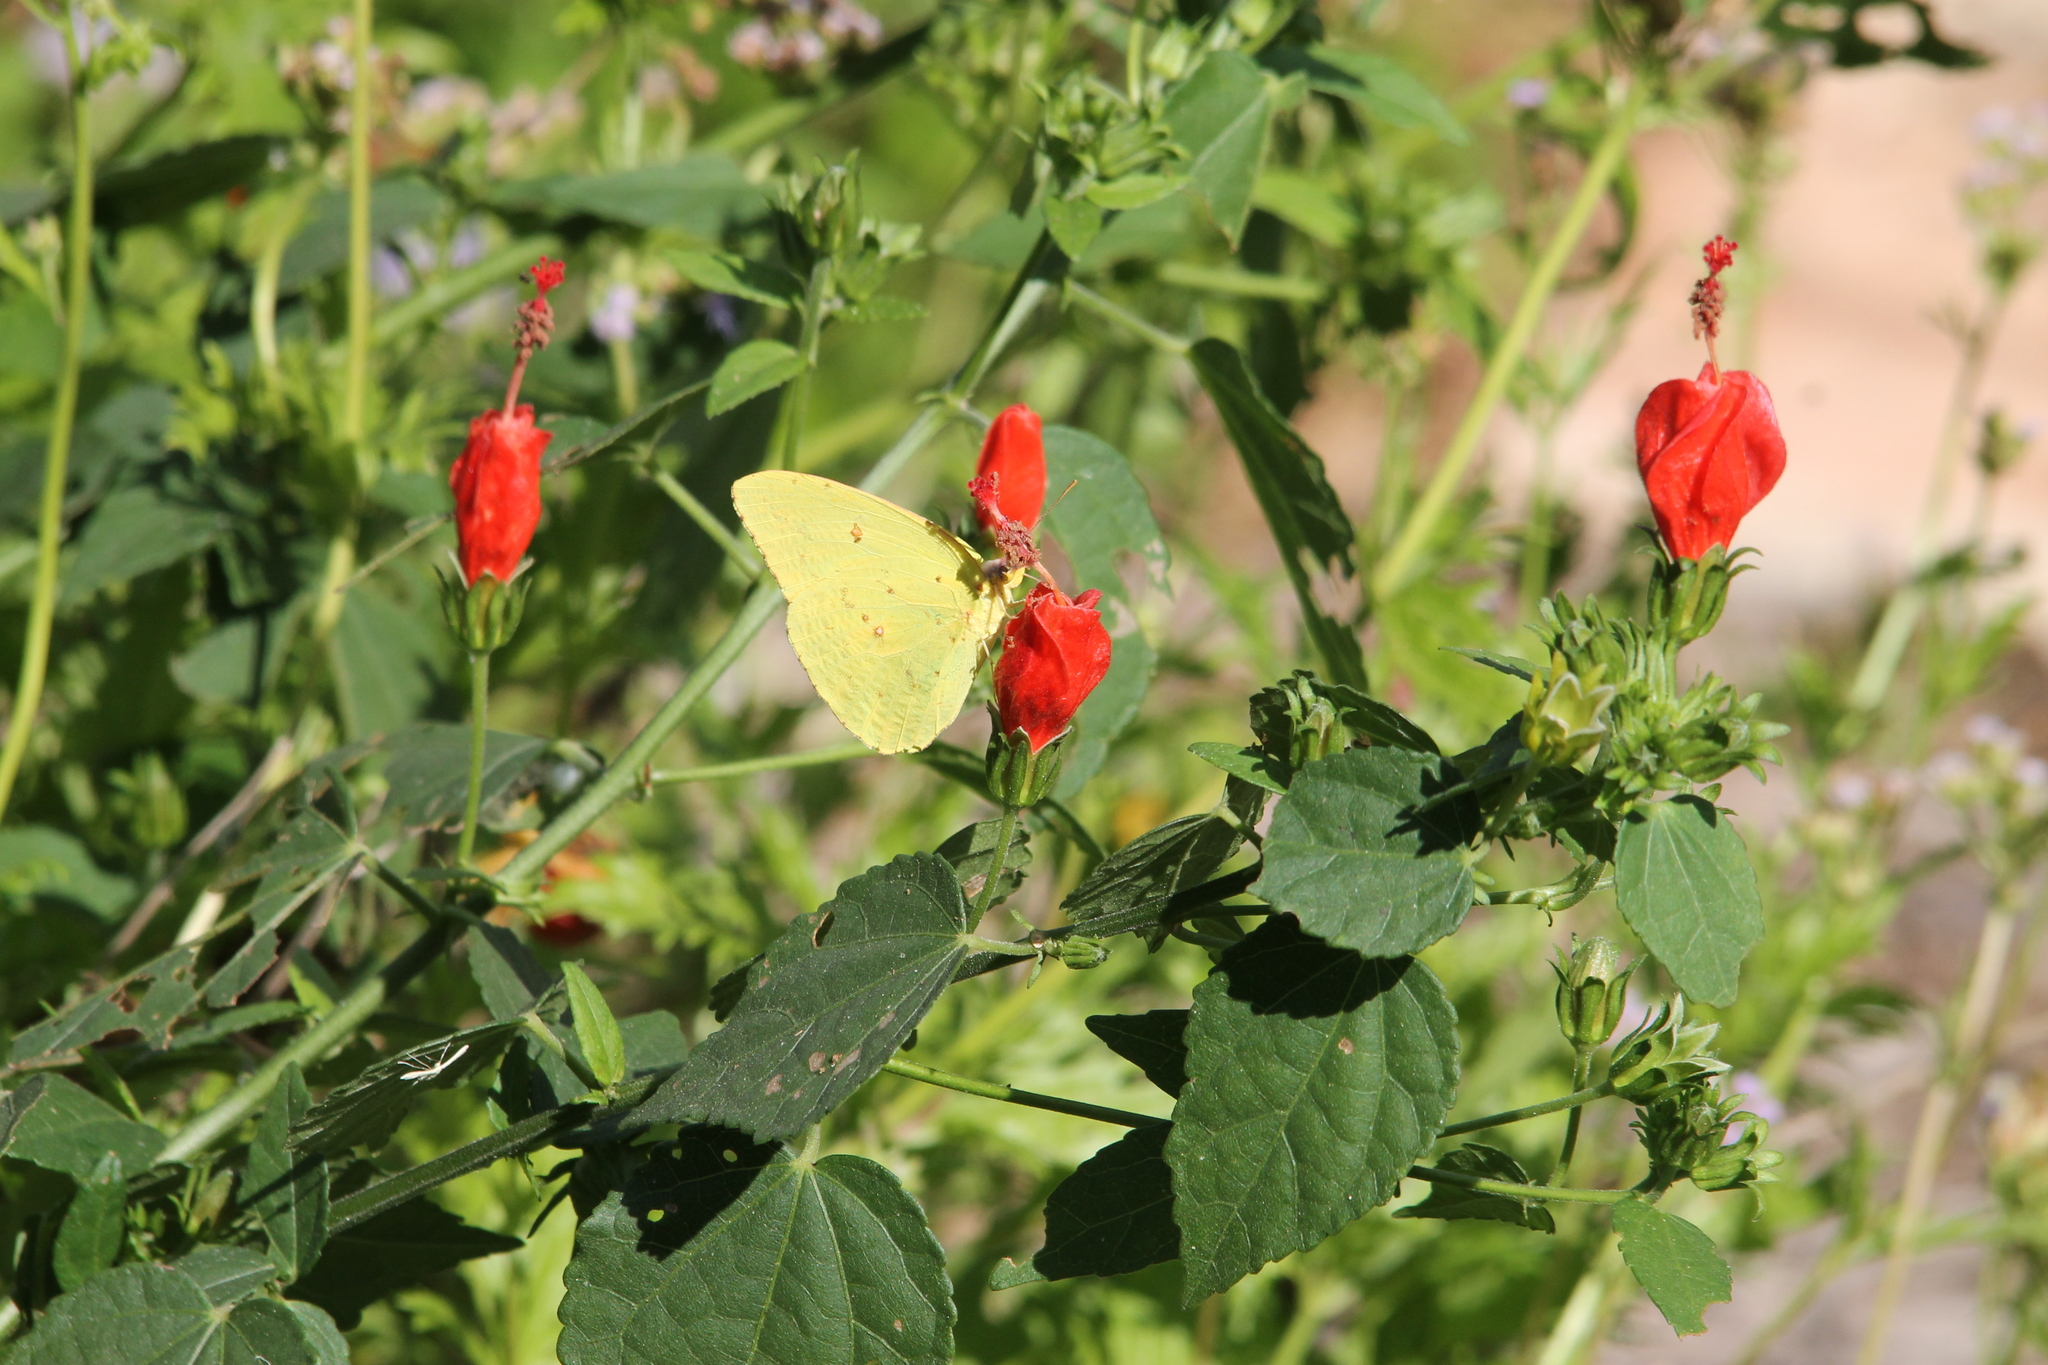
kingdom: Animalia
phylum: Arthropoda
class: Insecta
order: Lepidoptera
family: Pieridae
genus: Phoebis
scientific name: Phoebis sennae
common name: Cloudless sulphur
